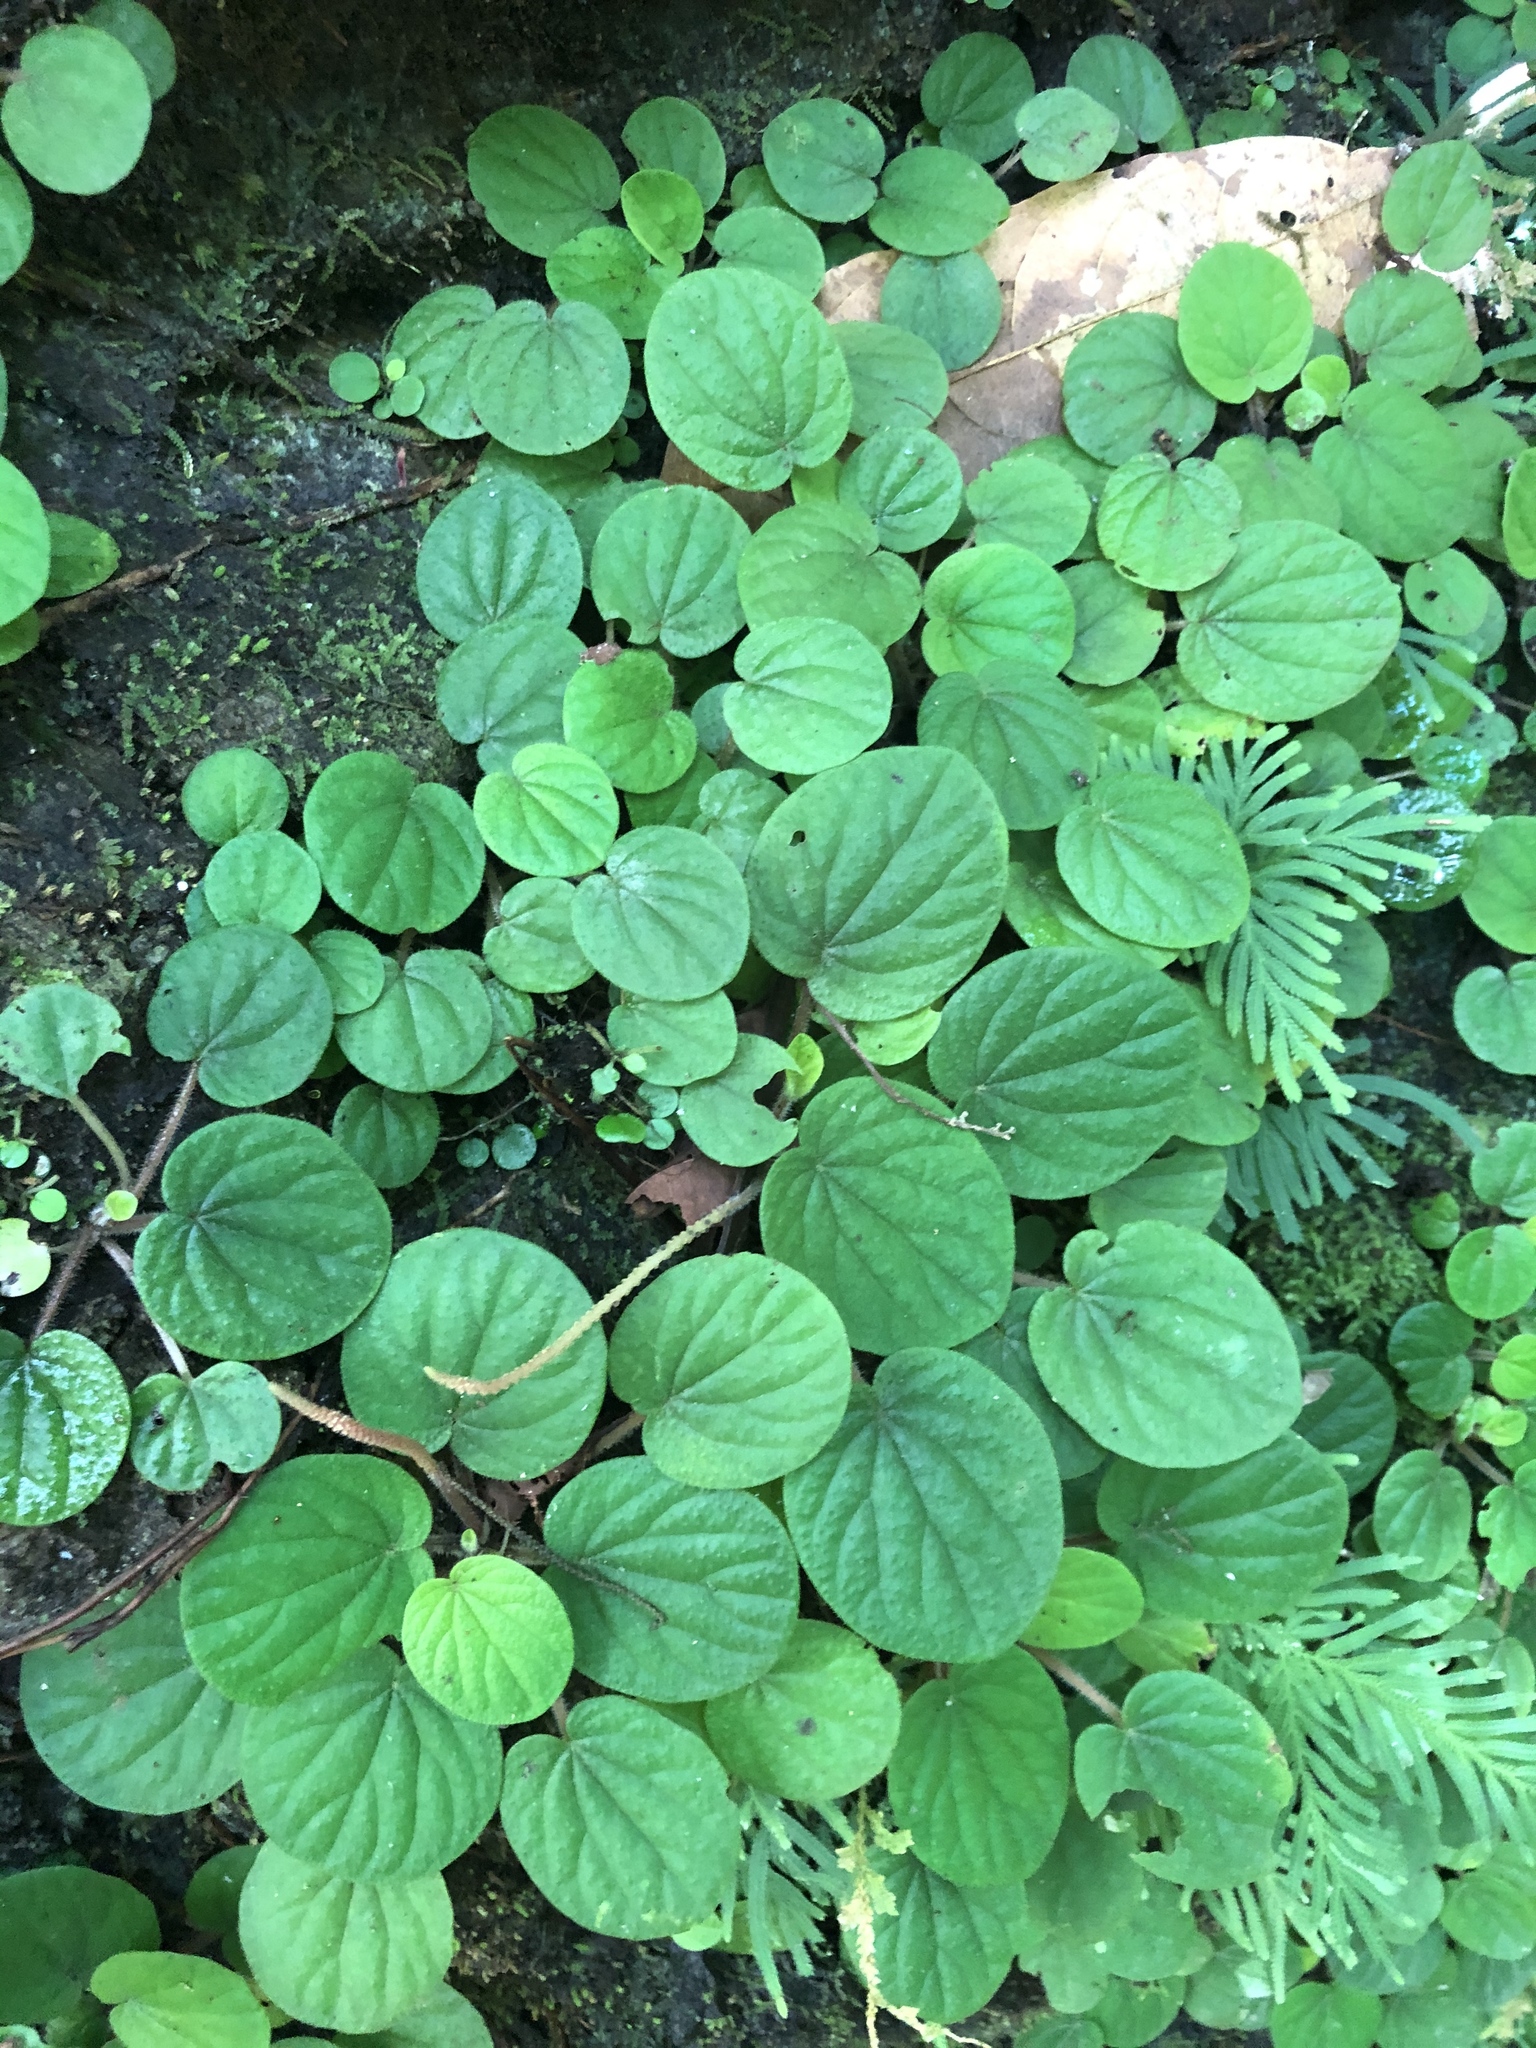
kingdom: Plantae
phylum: Tracheophyta
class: Magnoliopsida
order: Piperales
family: Piperaceae
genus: Peperomia
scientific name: Peperomia saintpauliella
